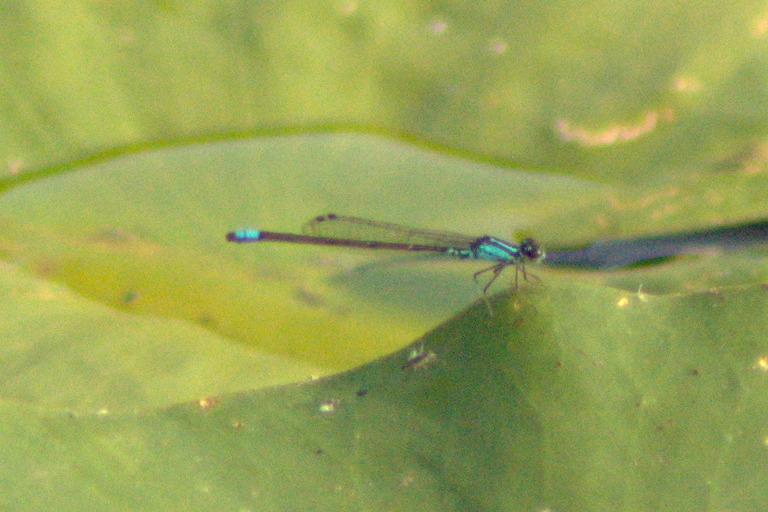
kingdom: Animalia
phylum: Arthropoda
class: Insecta
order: Odonata
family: Coenagrionidae
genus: Enallagma
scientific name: Enallagma geminatum
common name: Skimming bluet
